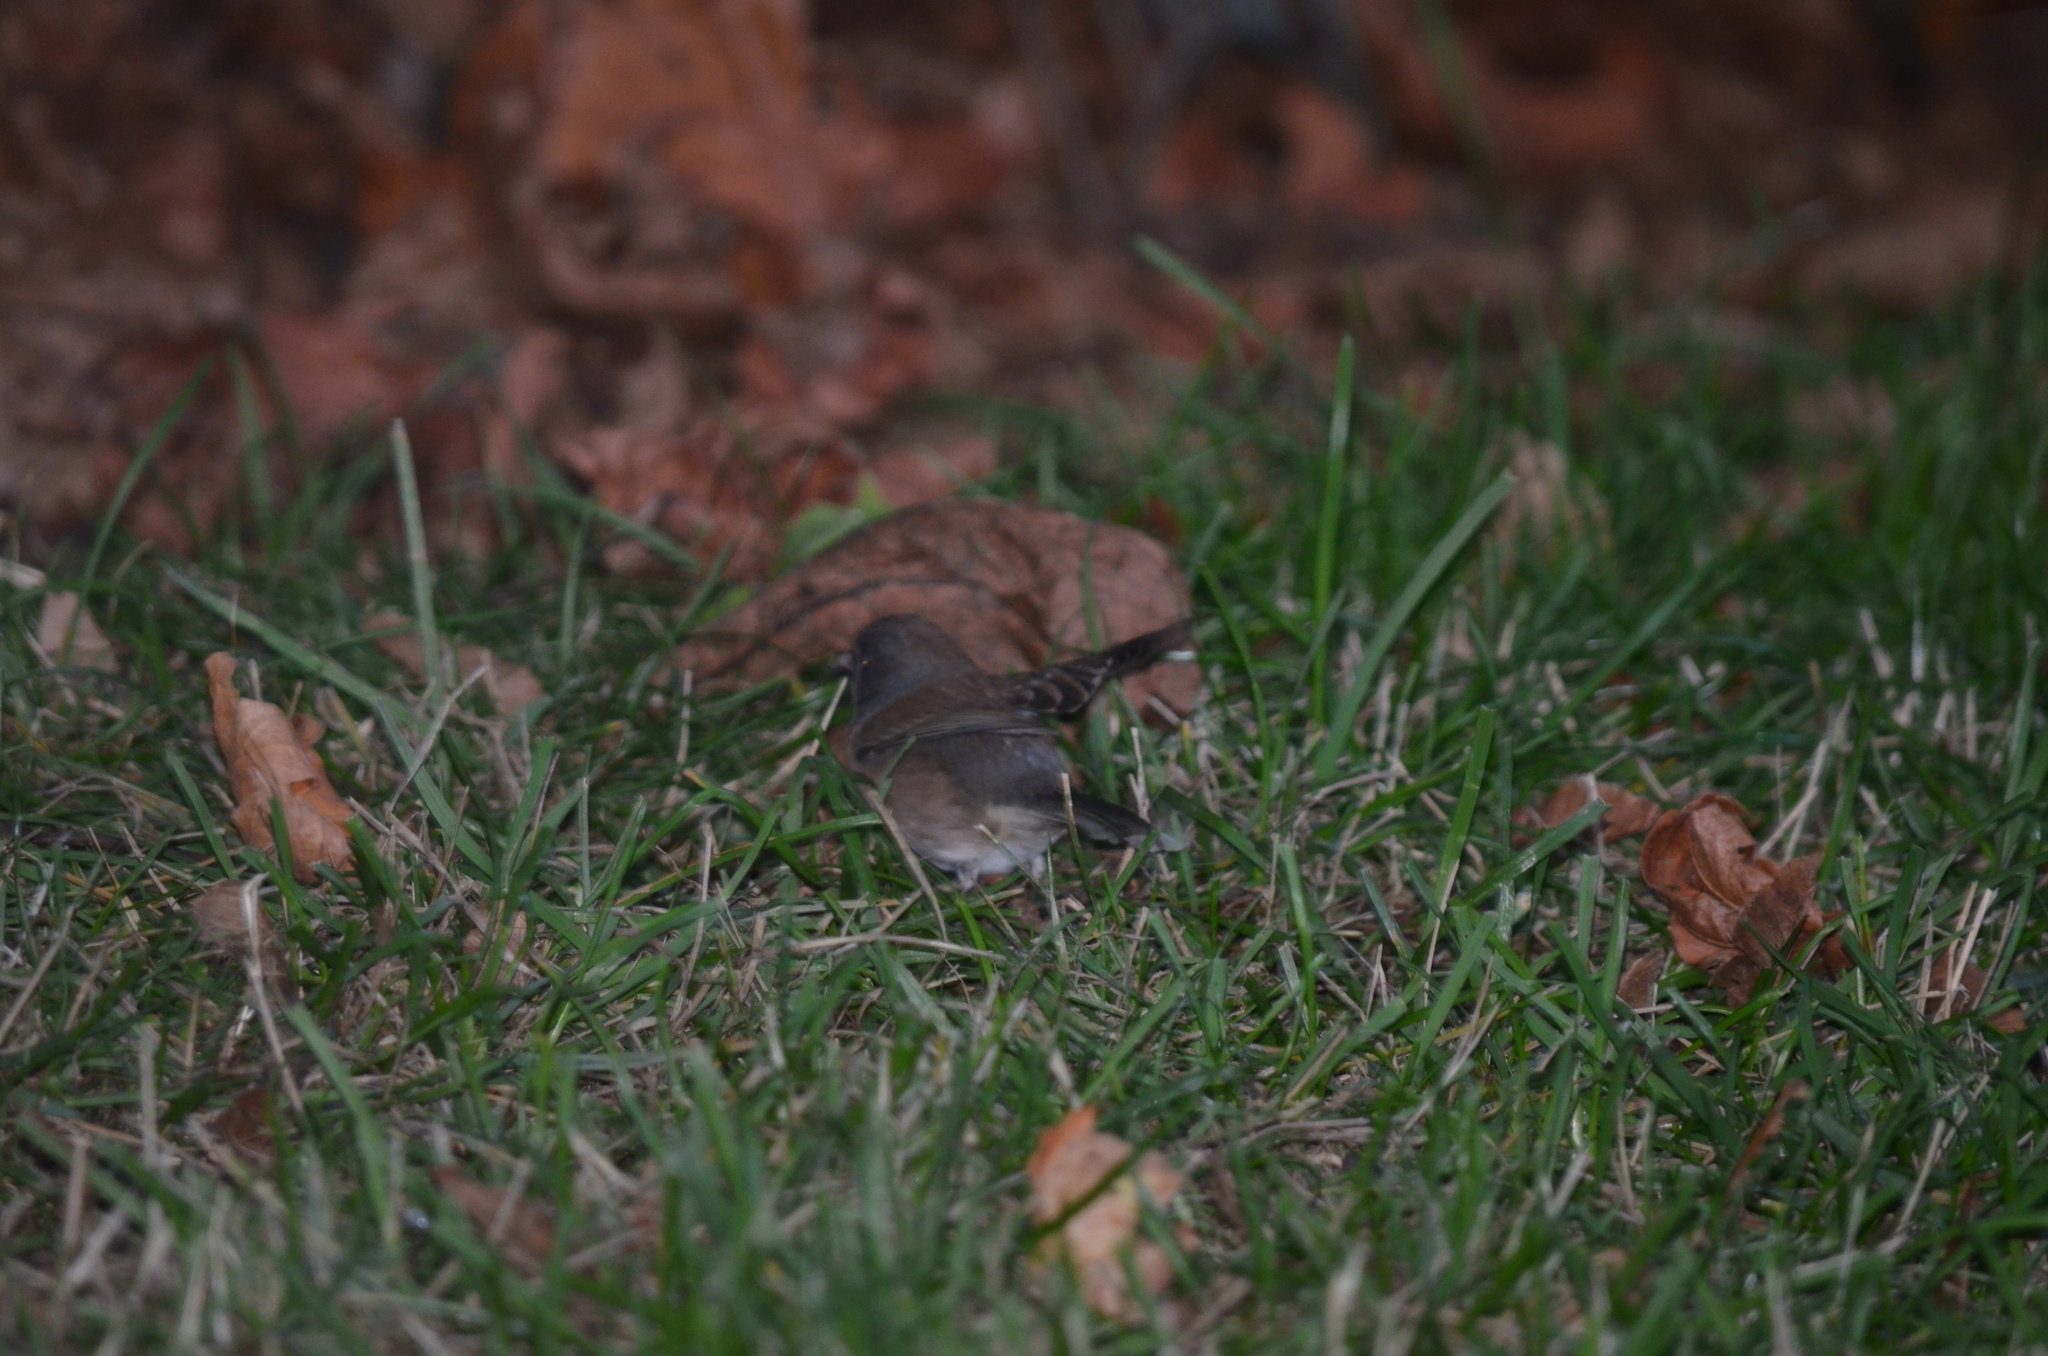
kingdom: Animalia
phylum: Chordata
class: Aves
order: Passeriformes
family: Passerellidae
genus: Junco
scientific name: Junco hyemalis
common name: Dark-eyed junco
